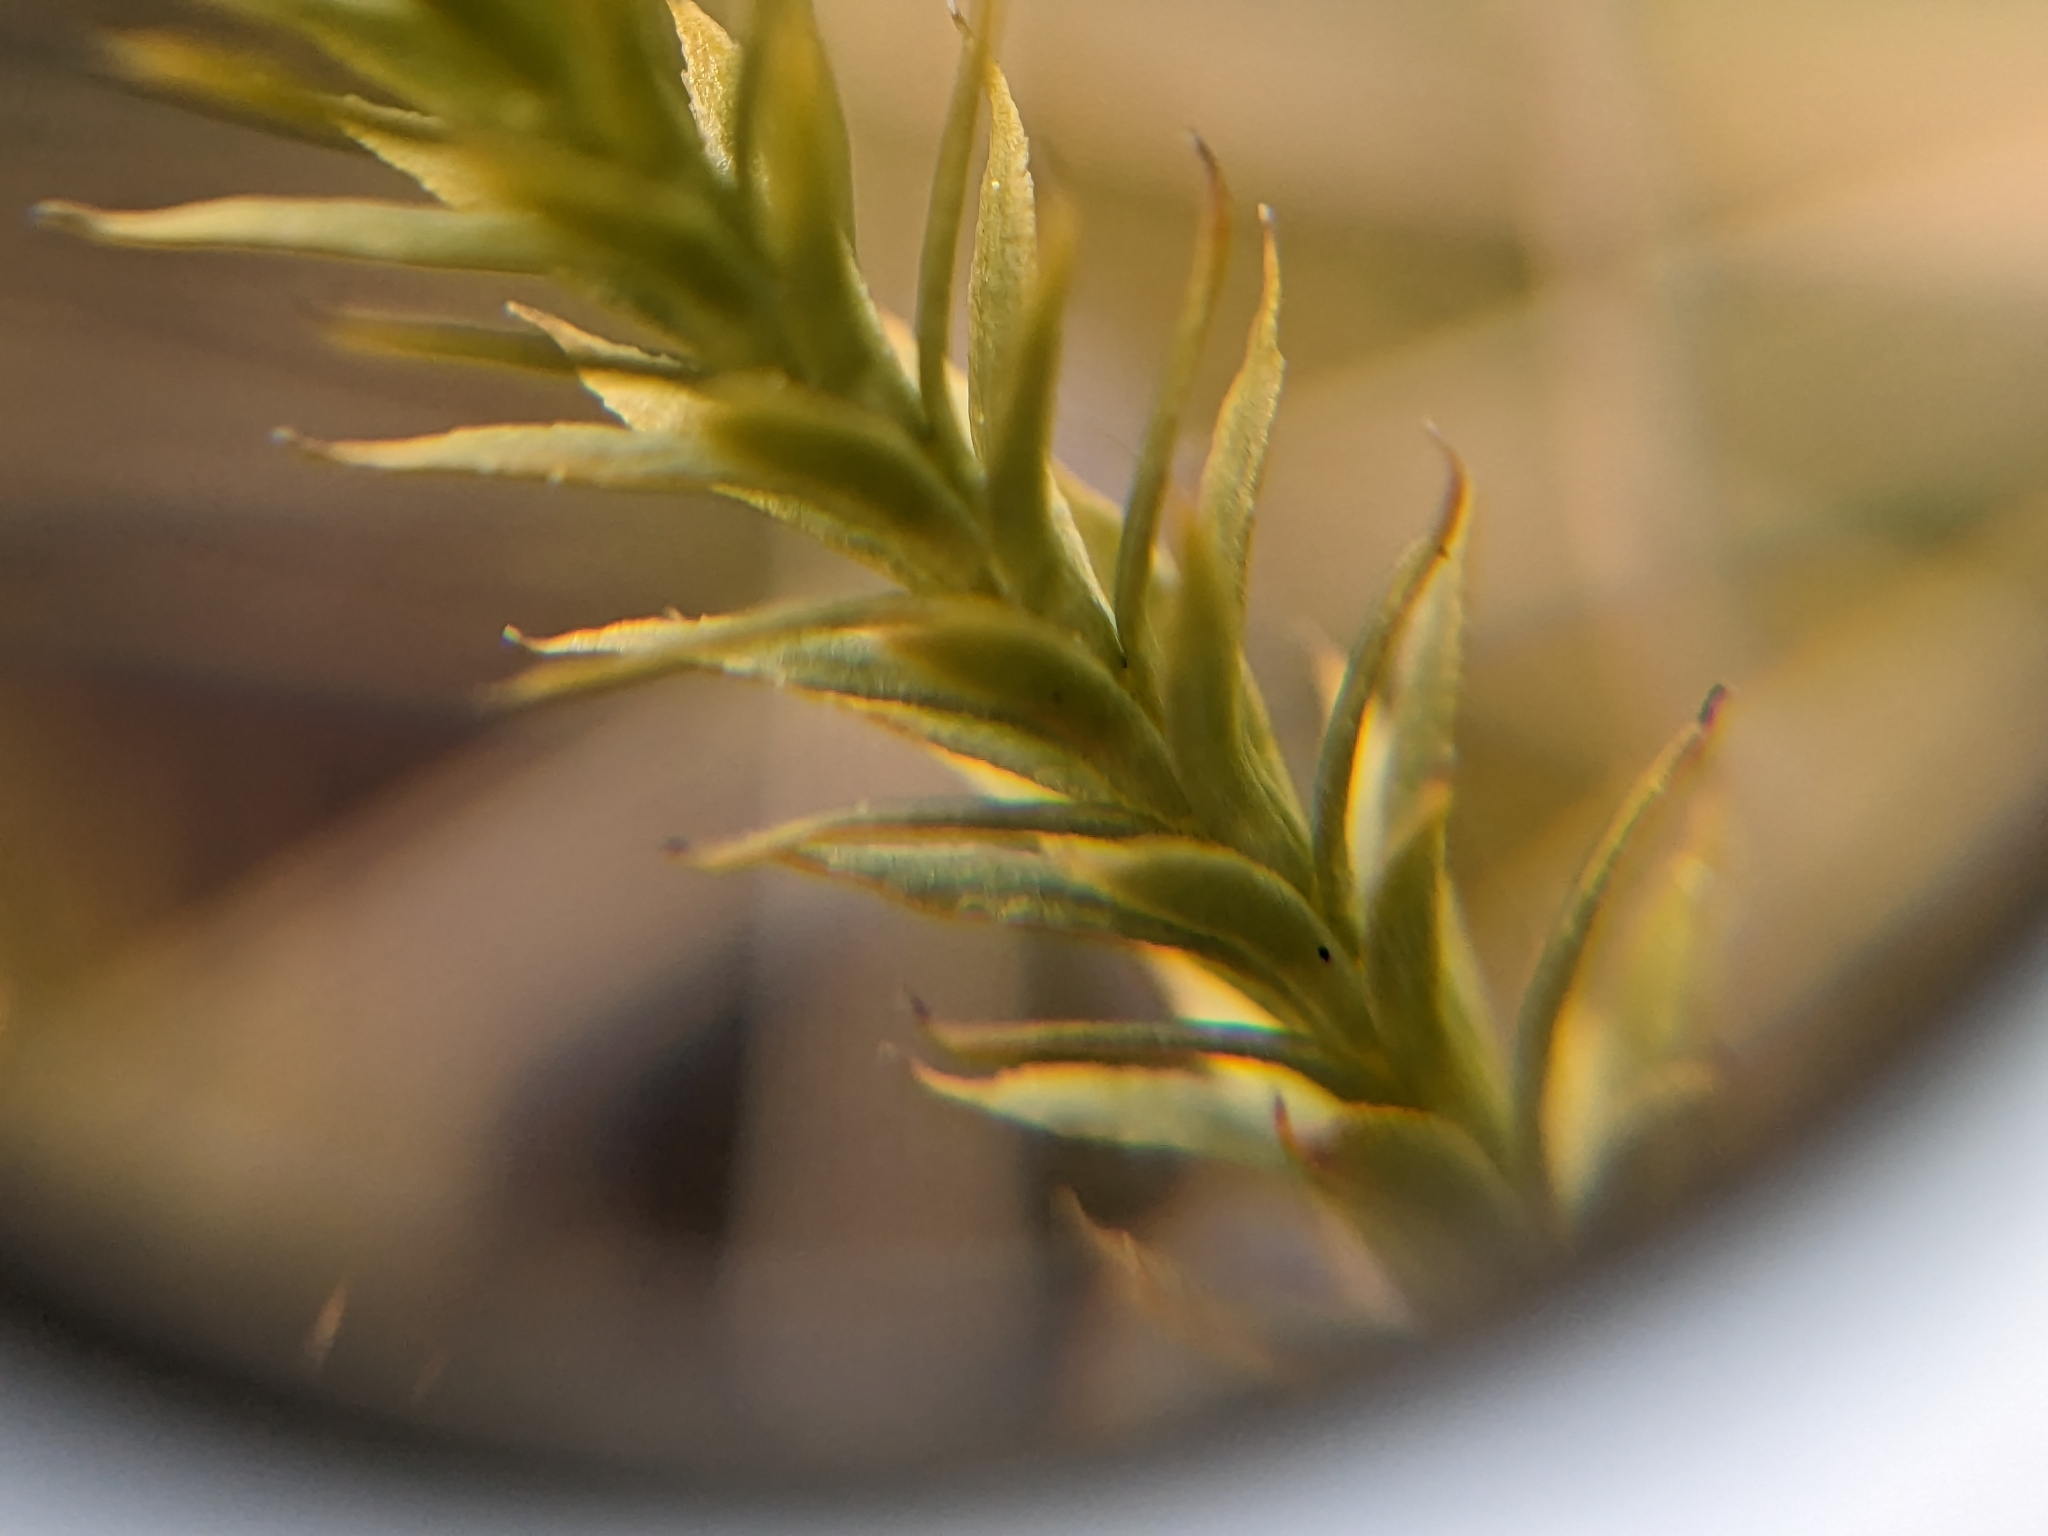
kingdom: Plantae
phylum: Tracheophyta
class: Lycopodiopsida
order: Lycopodiales
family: Lycopodiaceae
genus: Spinulum
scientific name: Spinulum annotinum
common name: Interrupted club-moss
